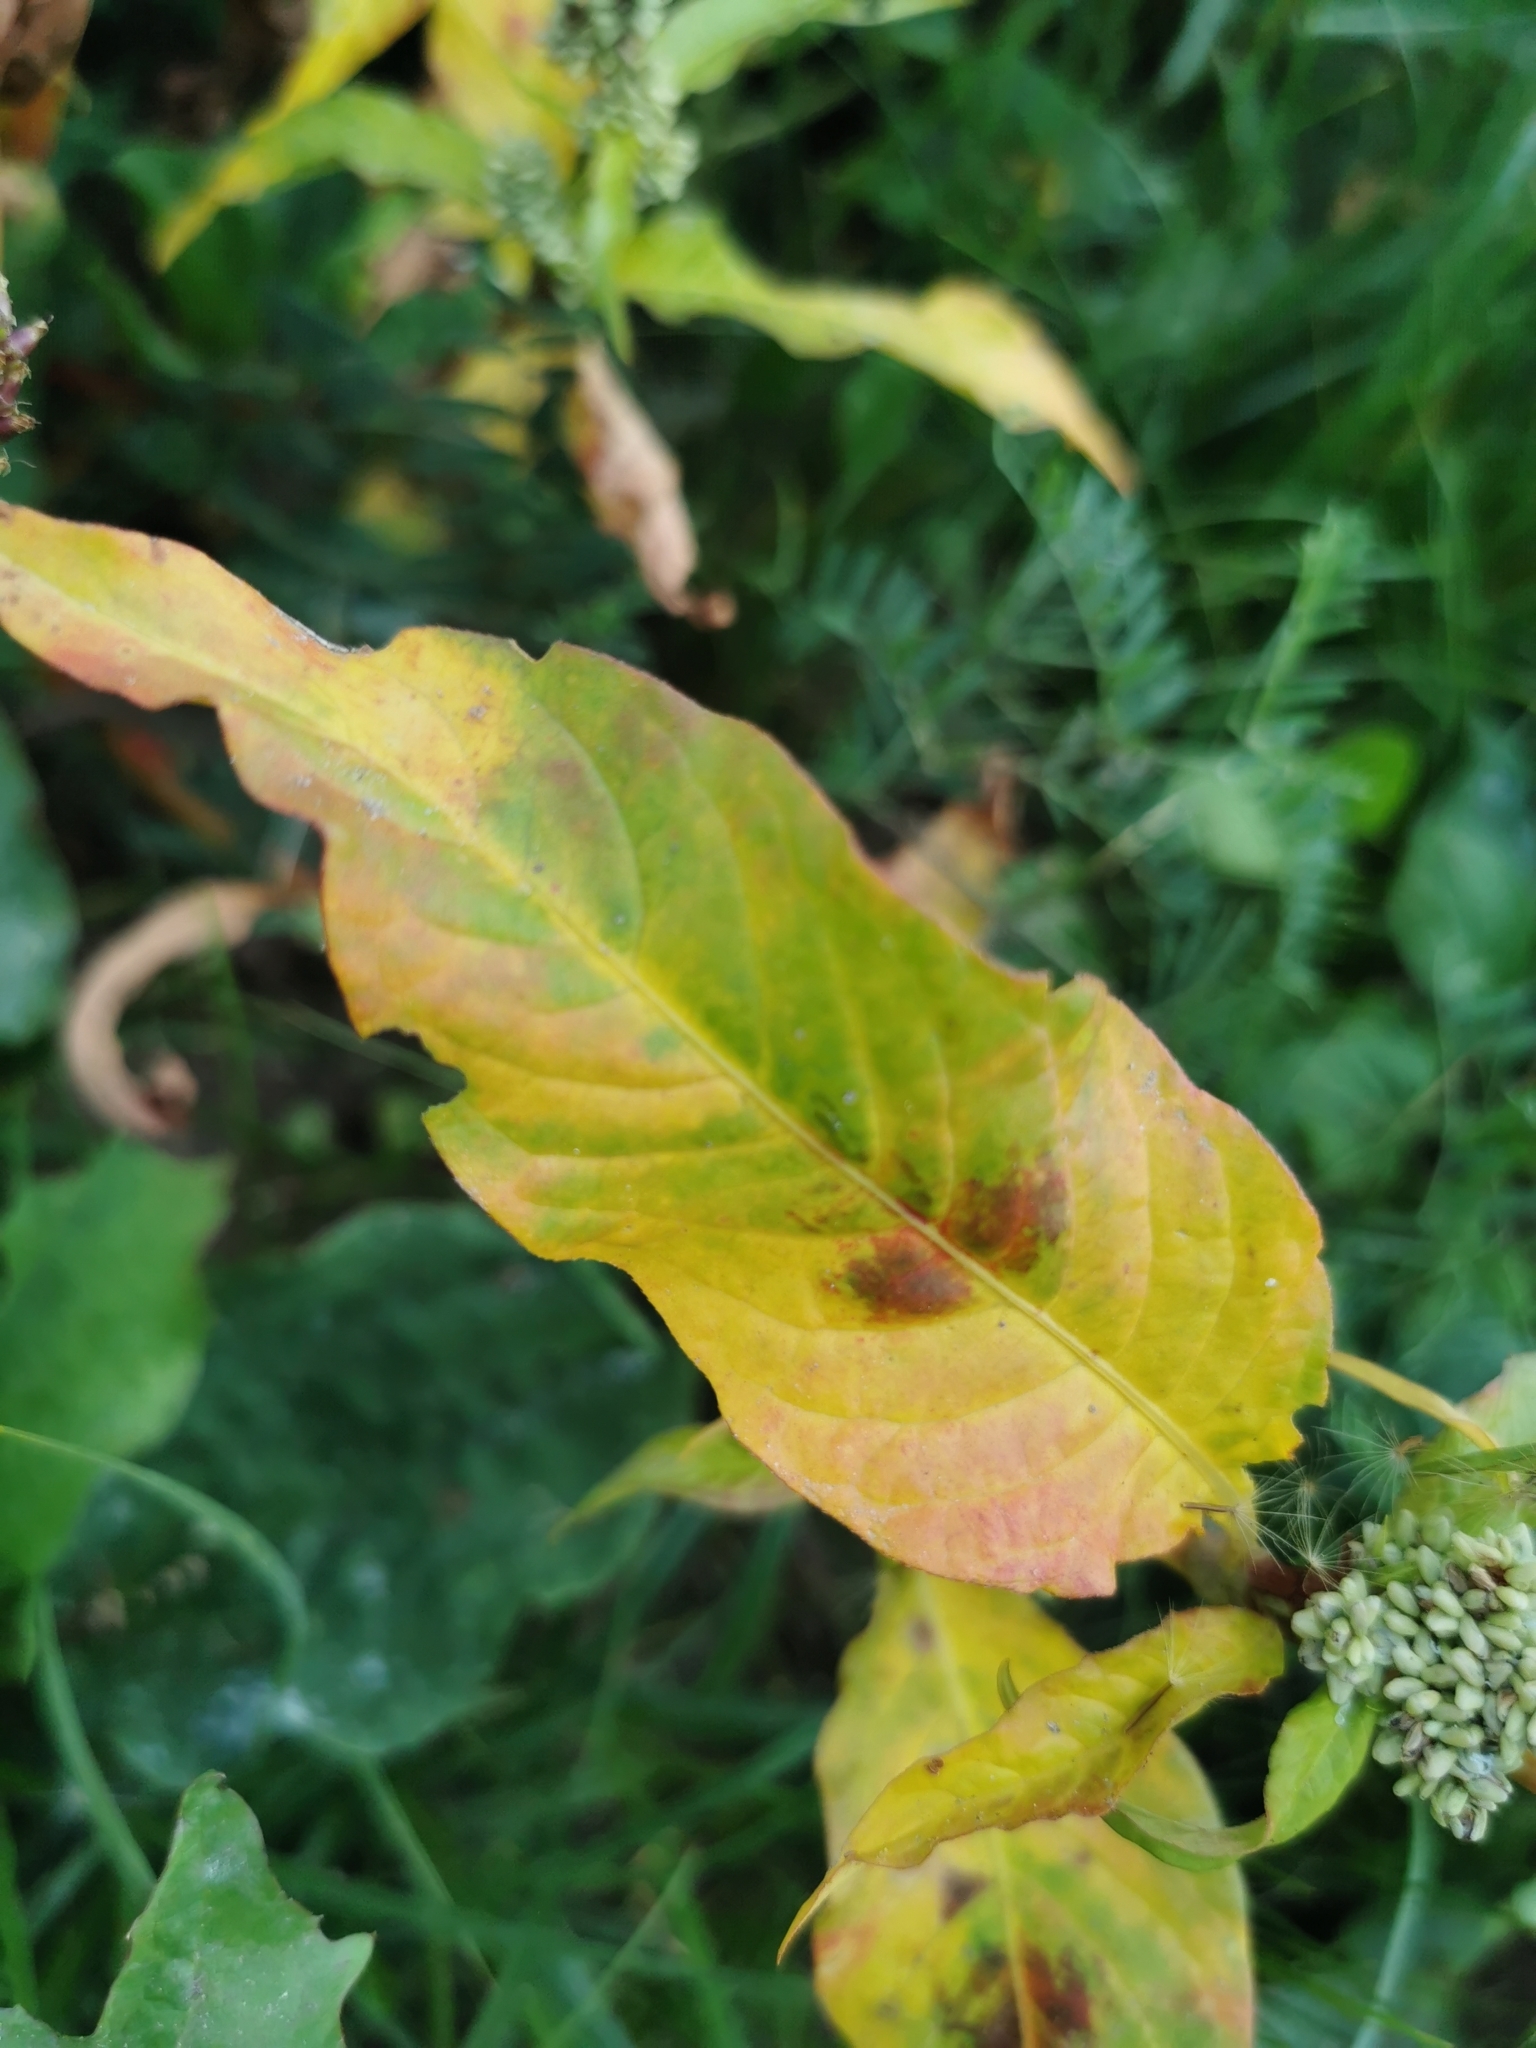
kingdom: Plantae
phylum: Tracheophyta
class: Magnoliopsida
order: Caryophyllales
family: Polygonaceae
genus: Persicaria
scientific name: Persicaria maculosa
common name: Redshank
